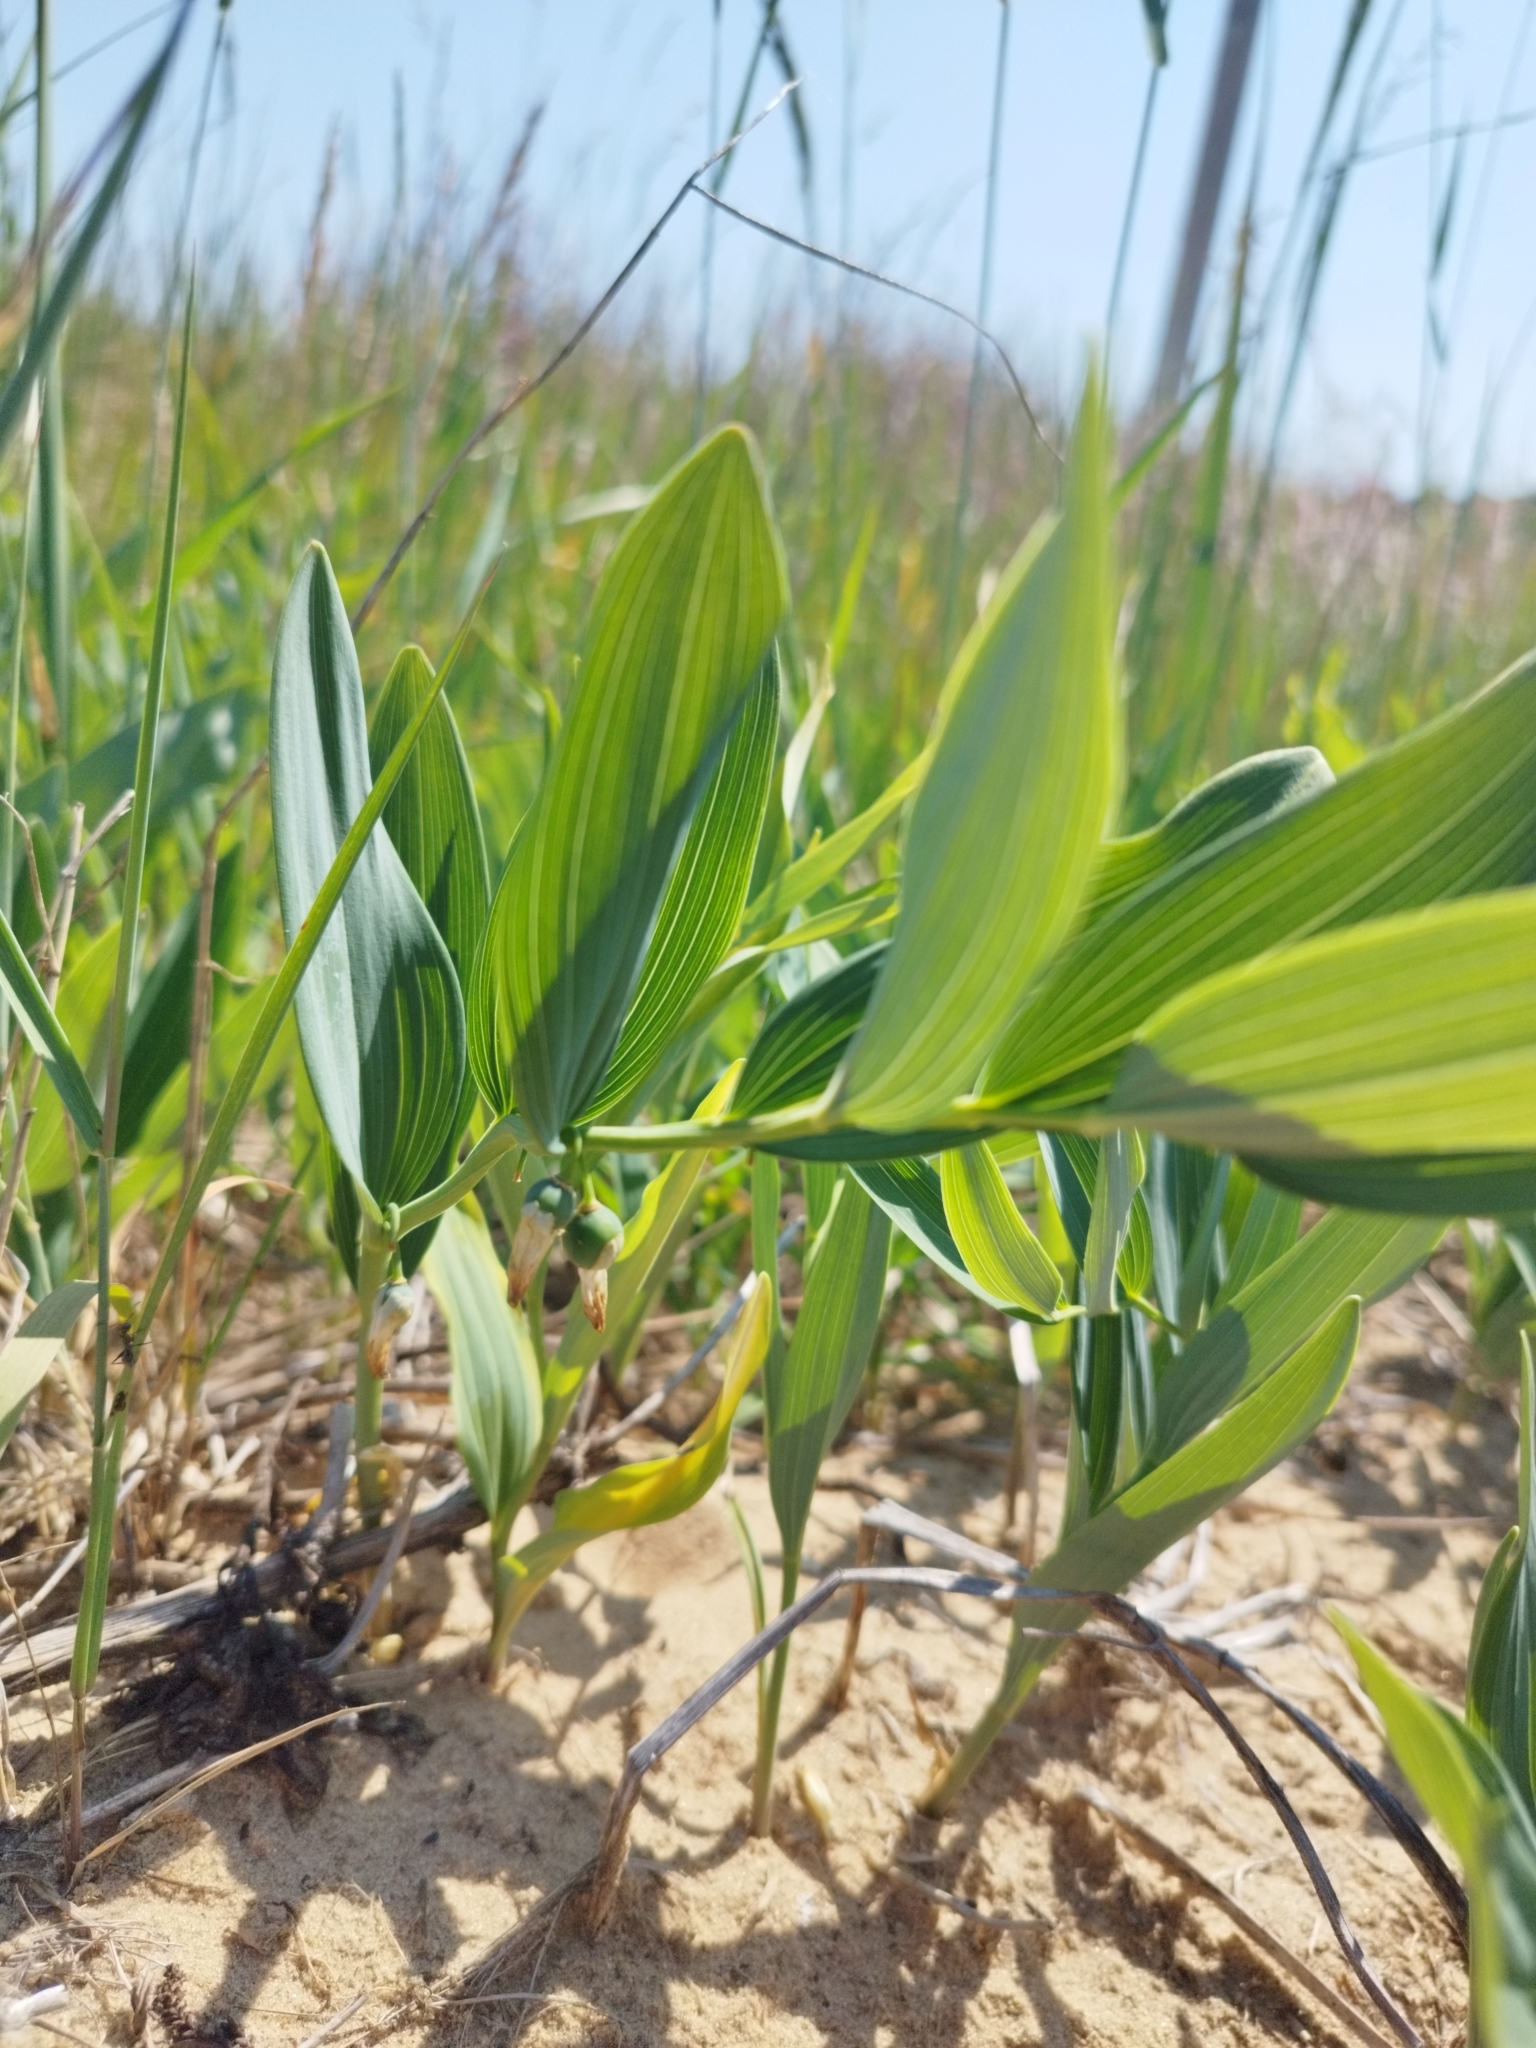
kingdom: Plantae
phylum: Tracheophyta
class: Liliopsida
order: Asparagales
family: Asparagaceae
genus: Polygonatum
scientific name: Polygonatum odoratum
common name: Angular solomon's-seal
